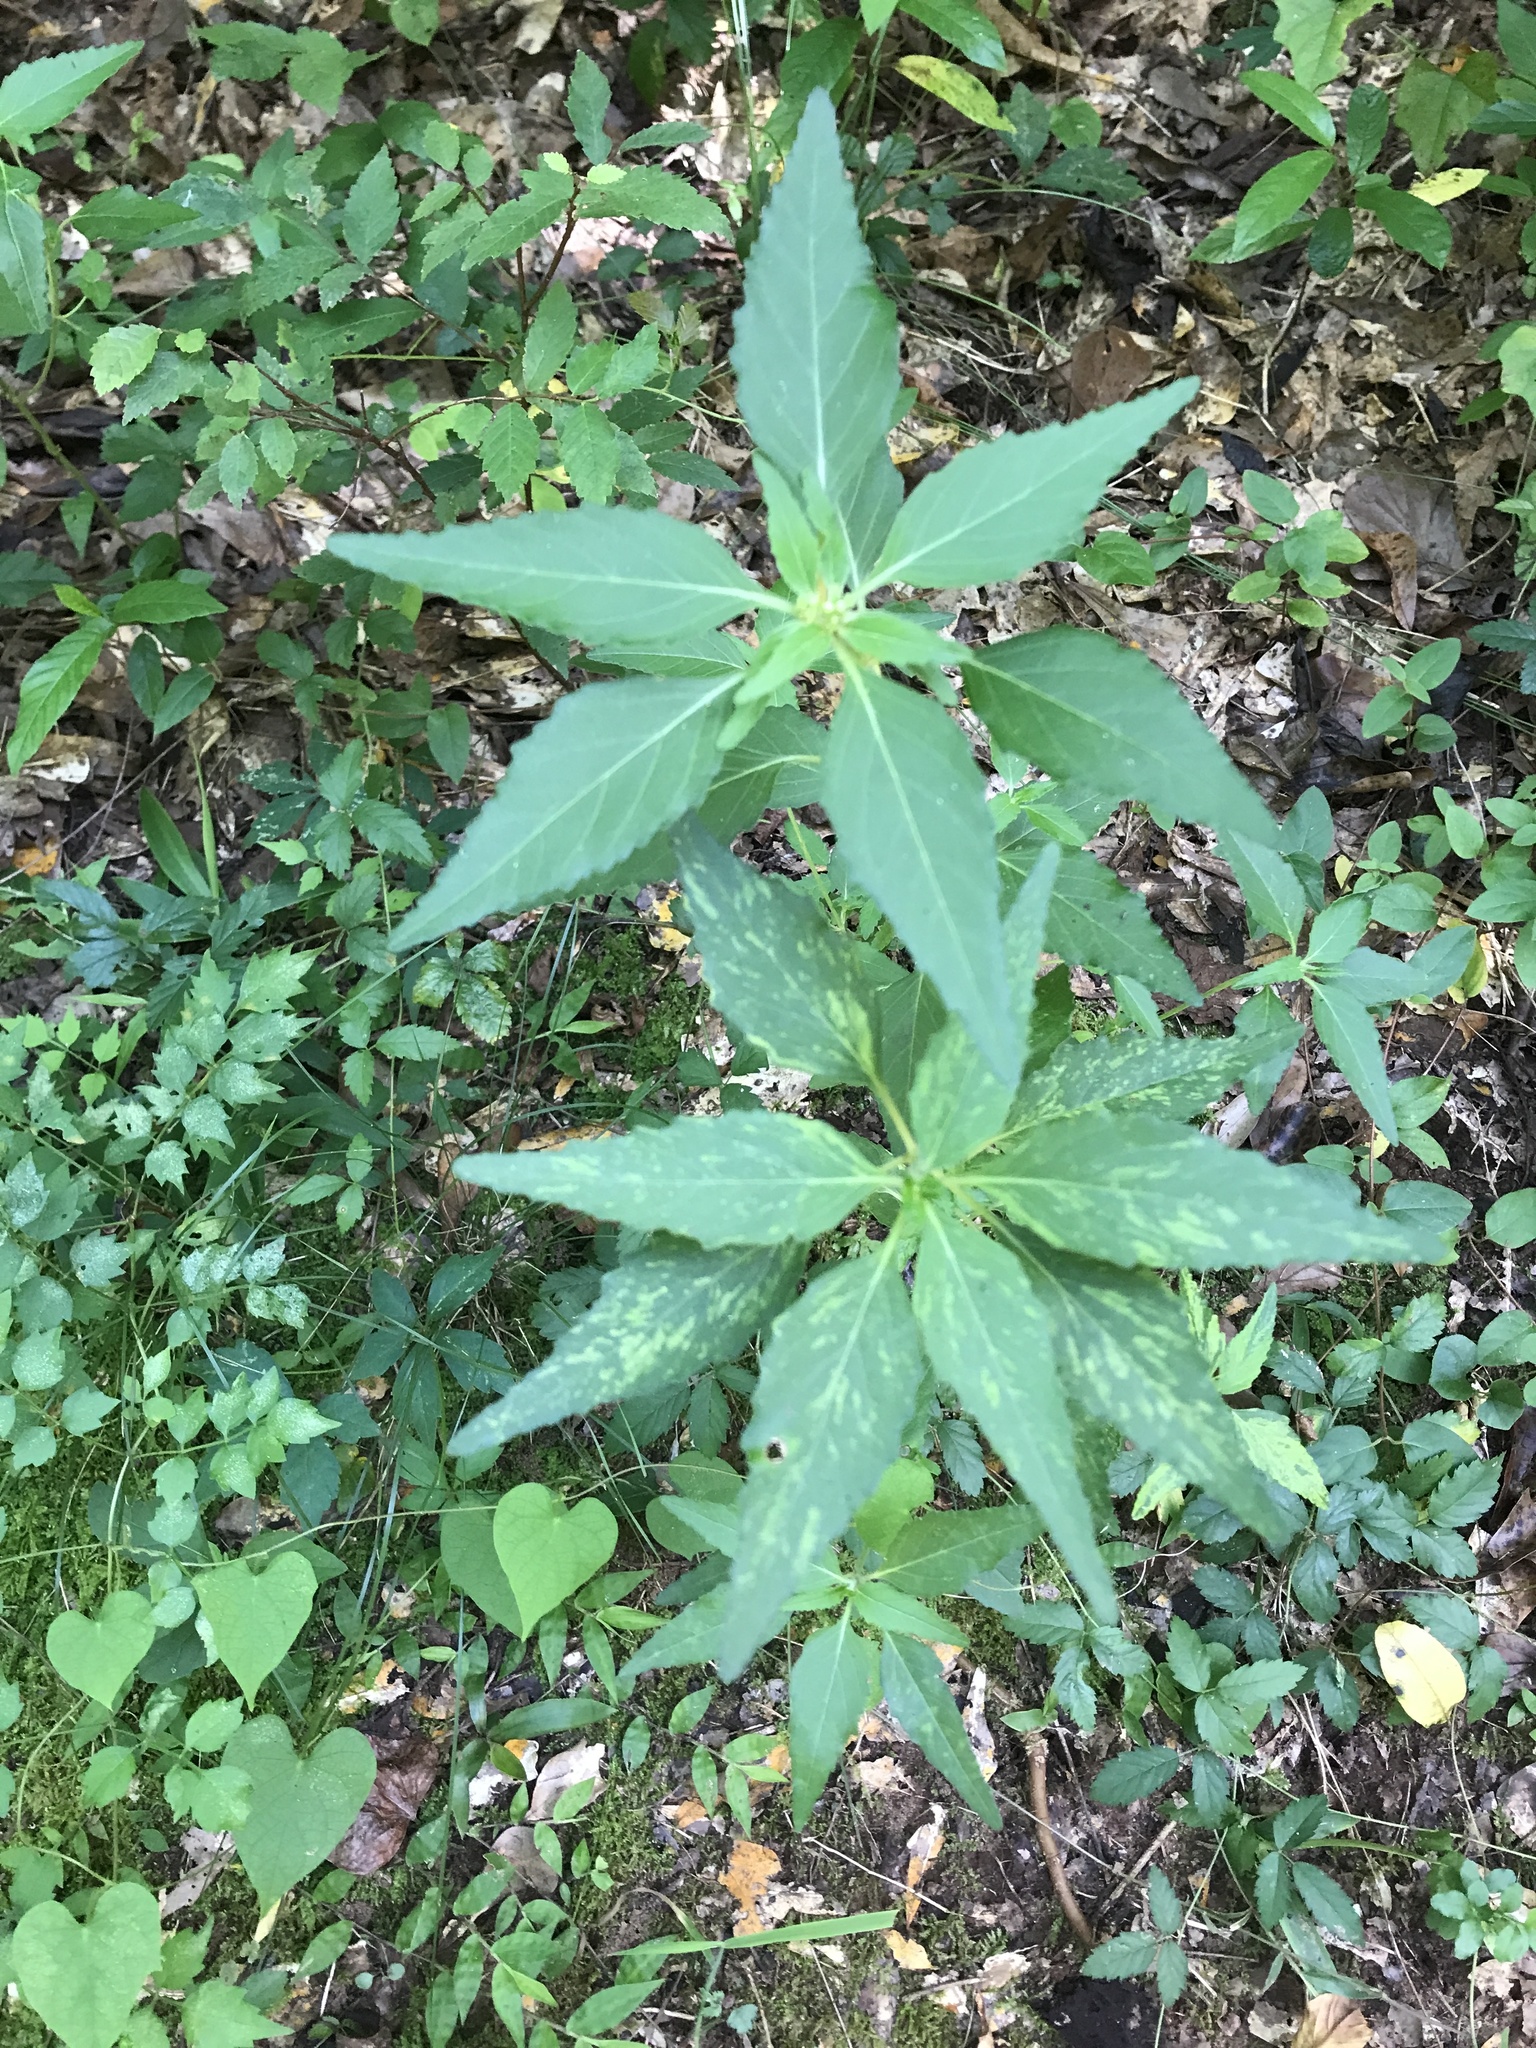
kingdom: Plantae
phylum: Tracheophyta
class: Magnoliopsida
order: Malpighiales
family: Euphorbiaceae
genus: Euphorbia
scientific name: Euphorbia dentata
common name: Dentate spurge
